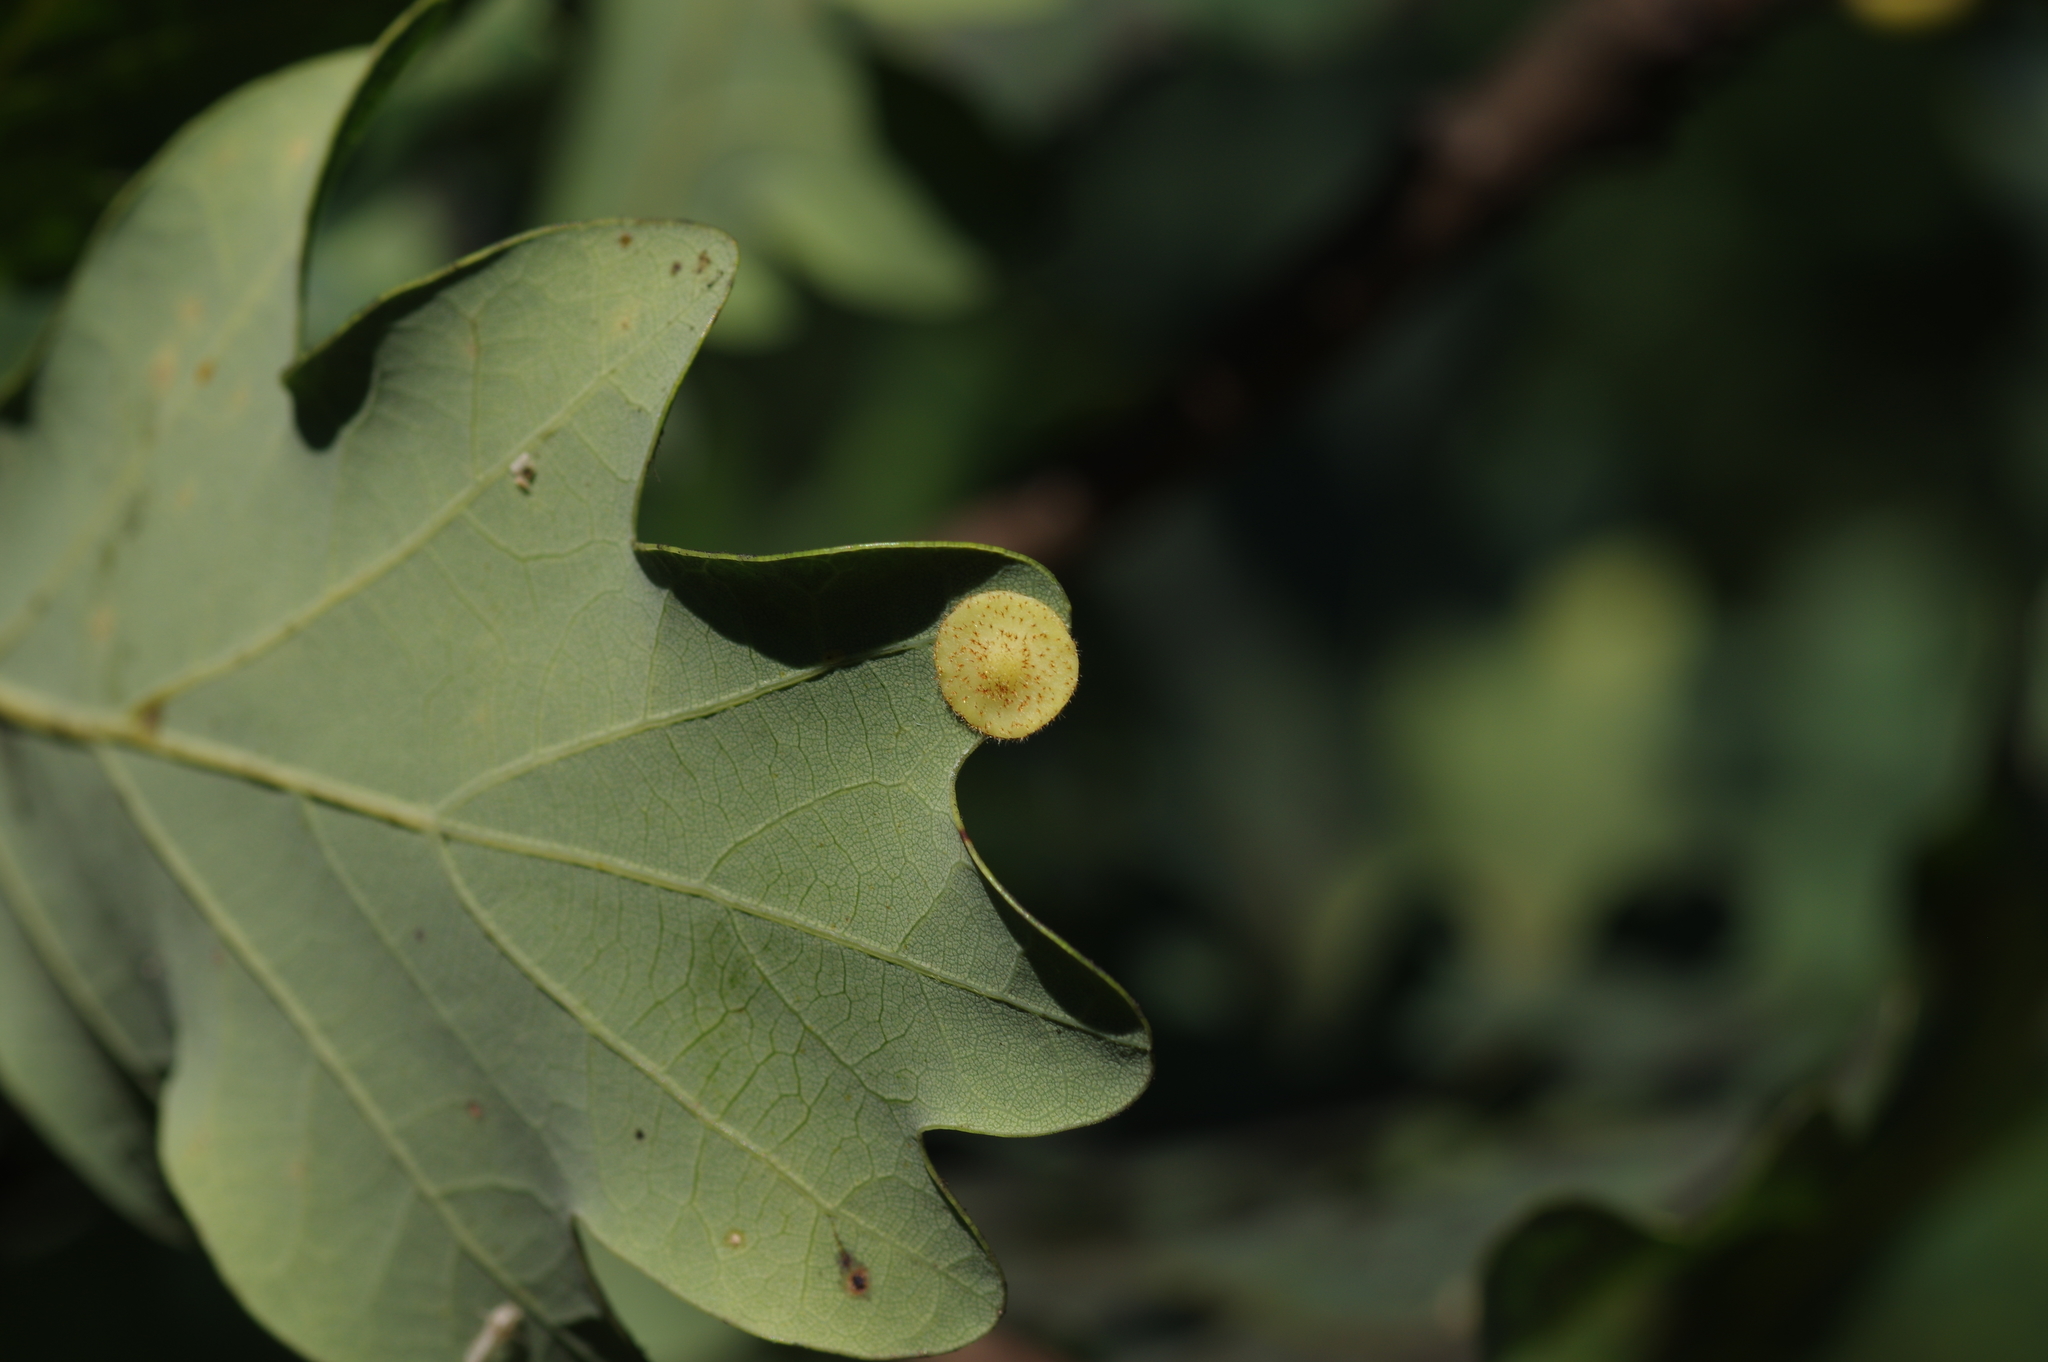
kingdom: Animalia
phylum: Arthropoda
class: Insecta
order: Hymenoptera
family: Cynipidae
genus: Neuroterus
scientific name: Neuroterus quercusbaccarum
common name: Common spangle gall
